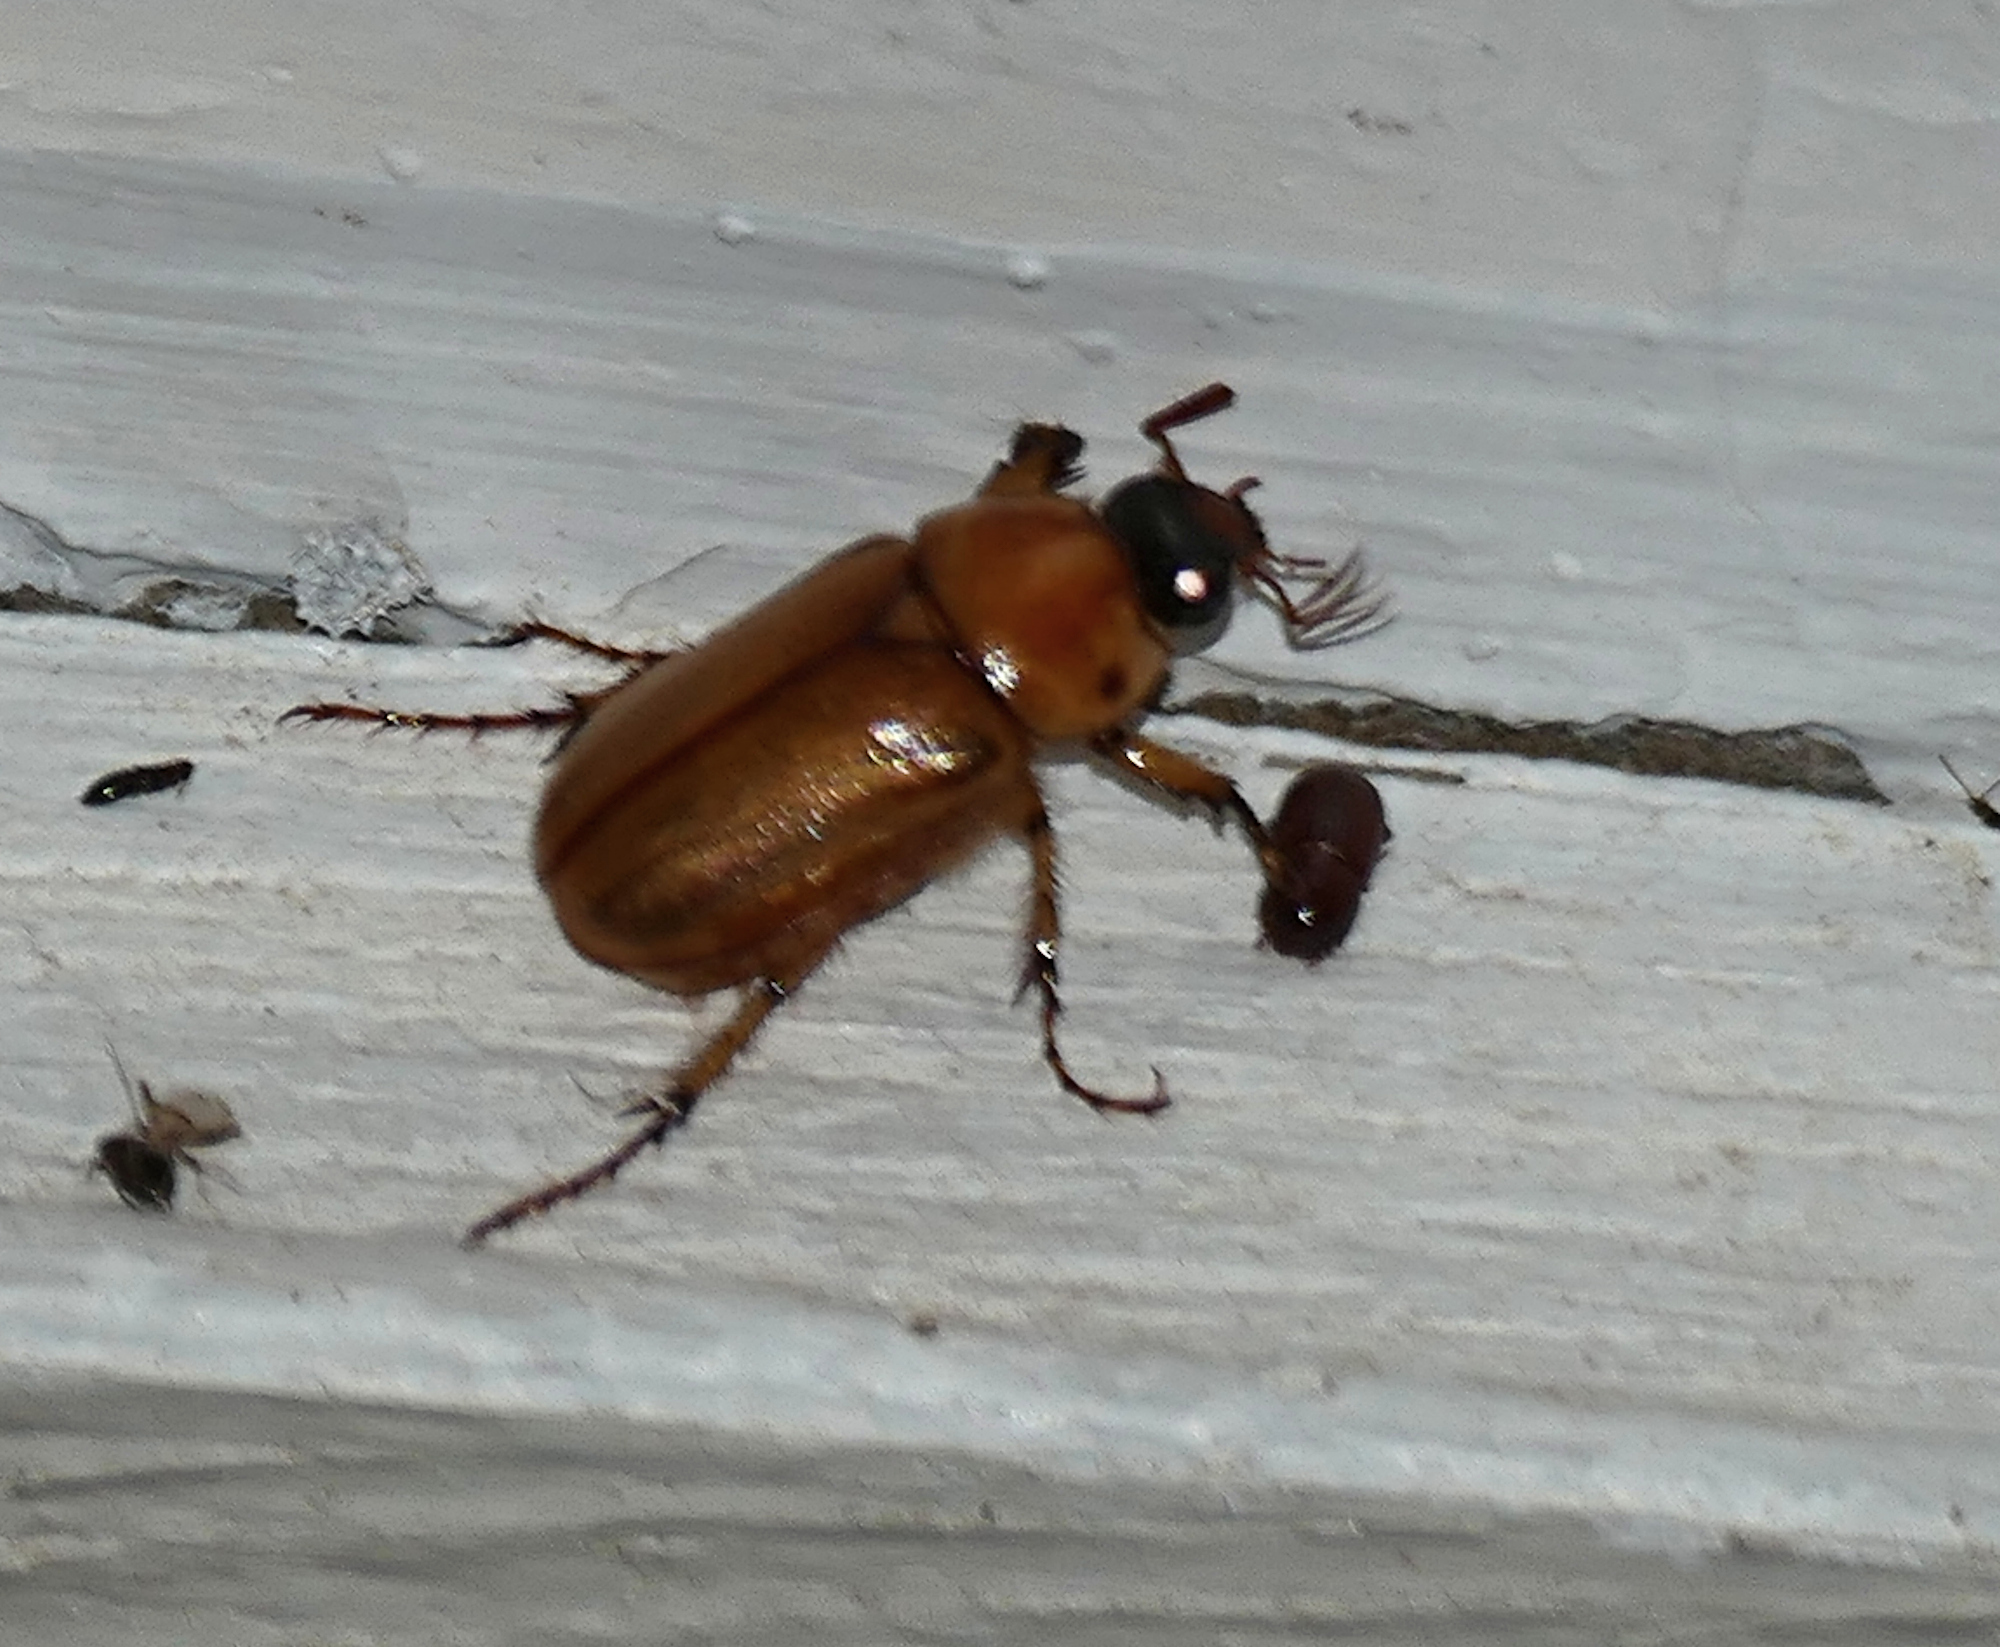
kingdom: Animalia
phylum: Arthropoda
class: Insecta
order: Coleoptera
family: Scarabaeidae
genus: Cyclocephala
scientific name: Cyclocephala pasadenae
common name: Pasadena masked chafer
